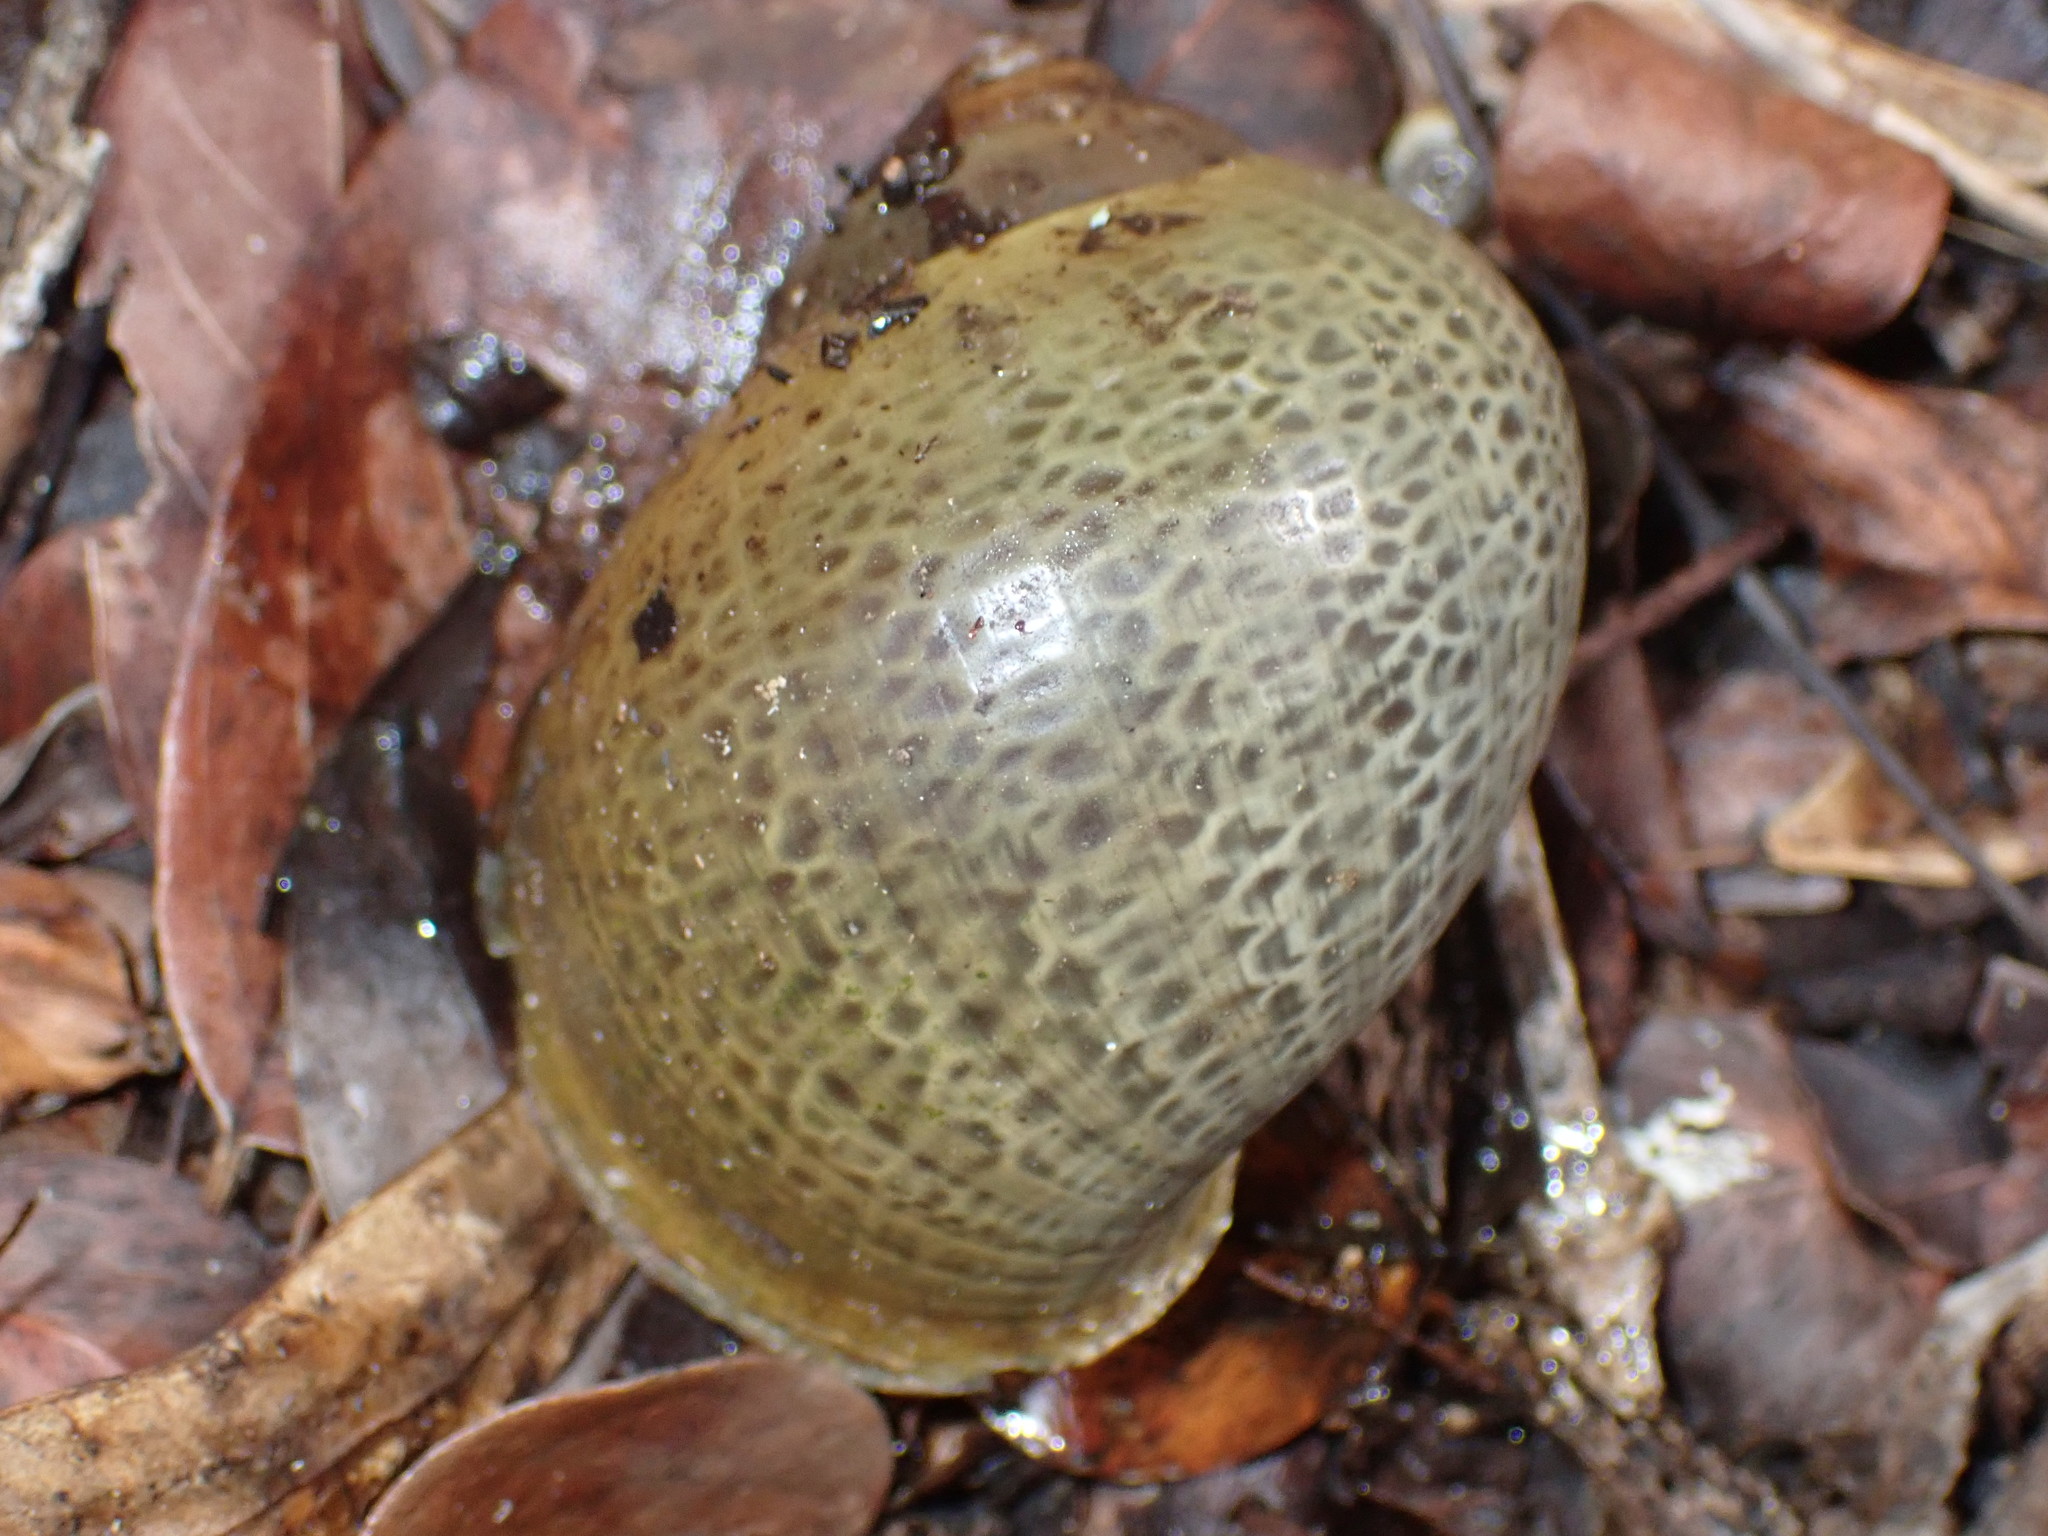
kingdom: Animalia
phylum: Mollusca
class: Gastropoda
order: Architaenioglossa
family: Ampullariidae
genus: Pomacea
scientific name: Pomacea flagellata
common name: Maya apple snail
